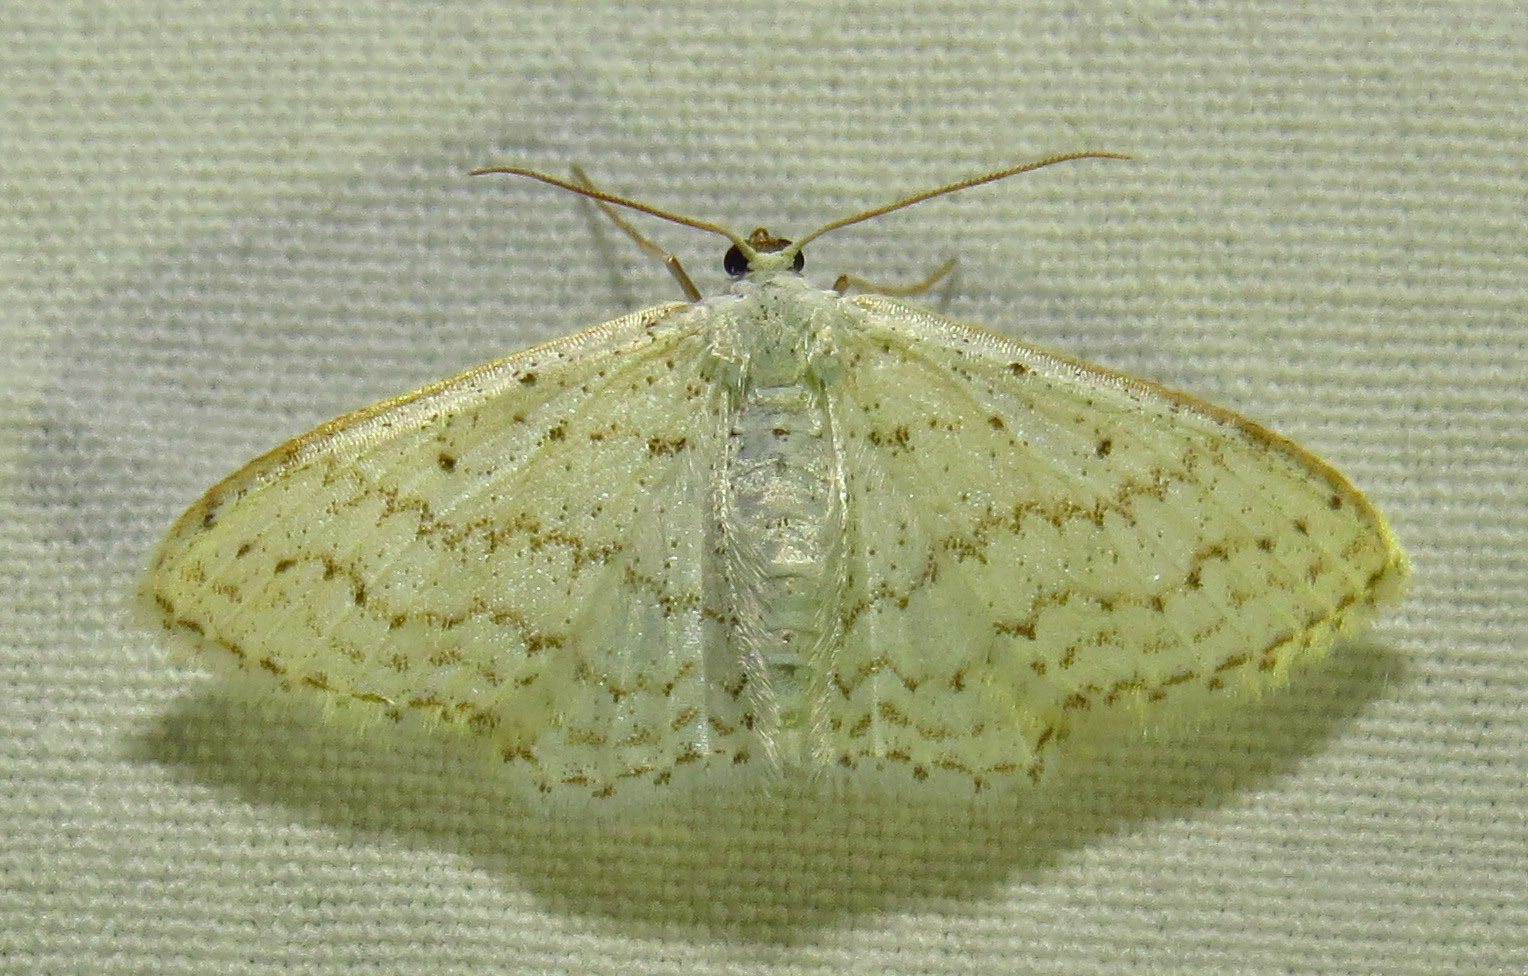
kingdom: Animalia
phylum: Arthropoda
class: Insecta
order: Lepidoptera
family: Geometridae
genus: Idaea
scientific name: Idaea tacturata
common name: Dot-lined wave
